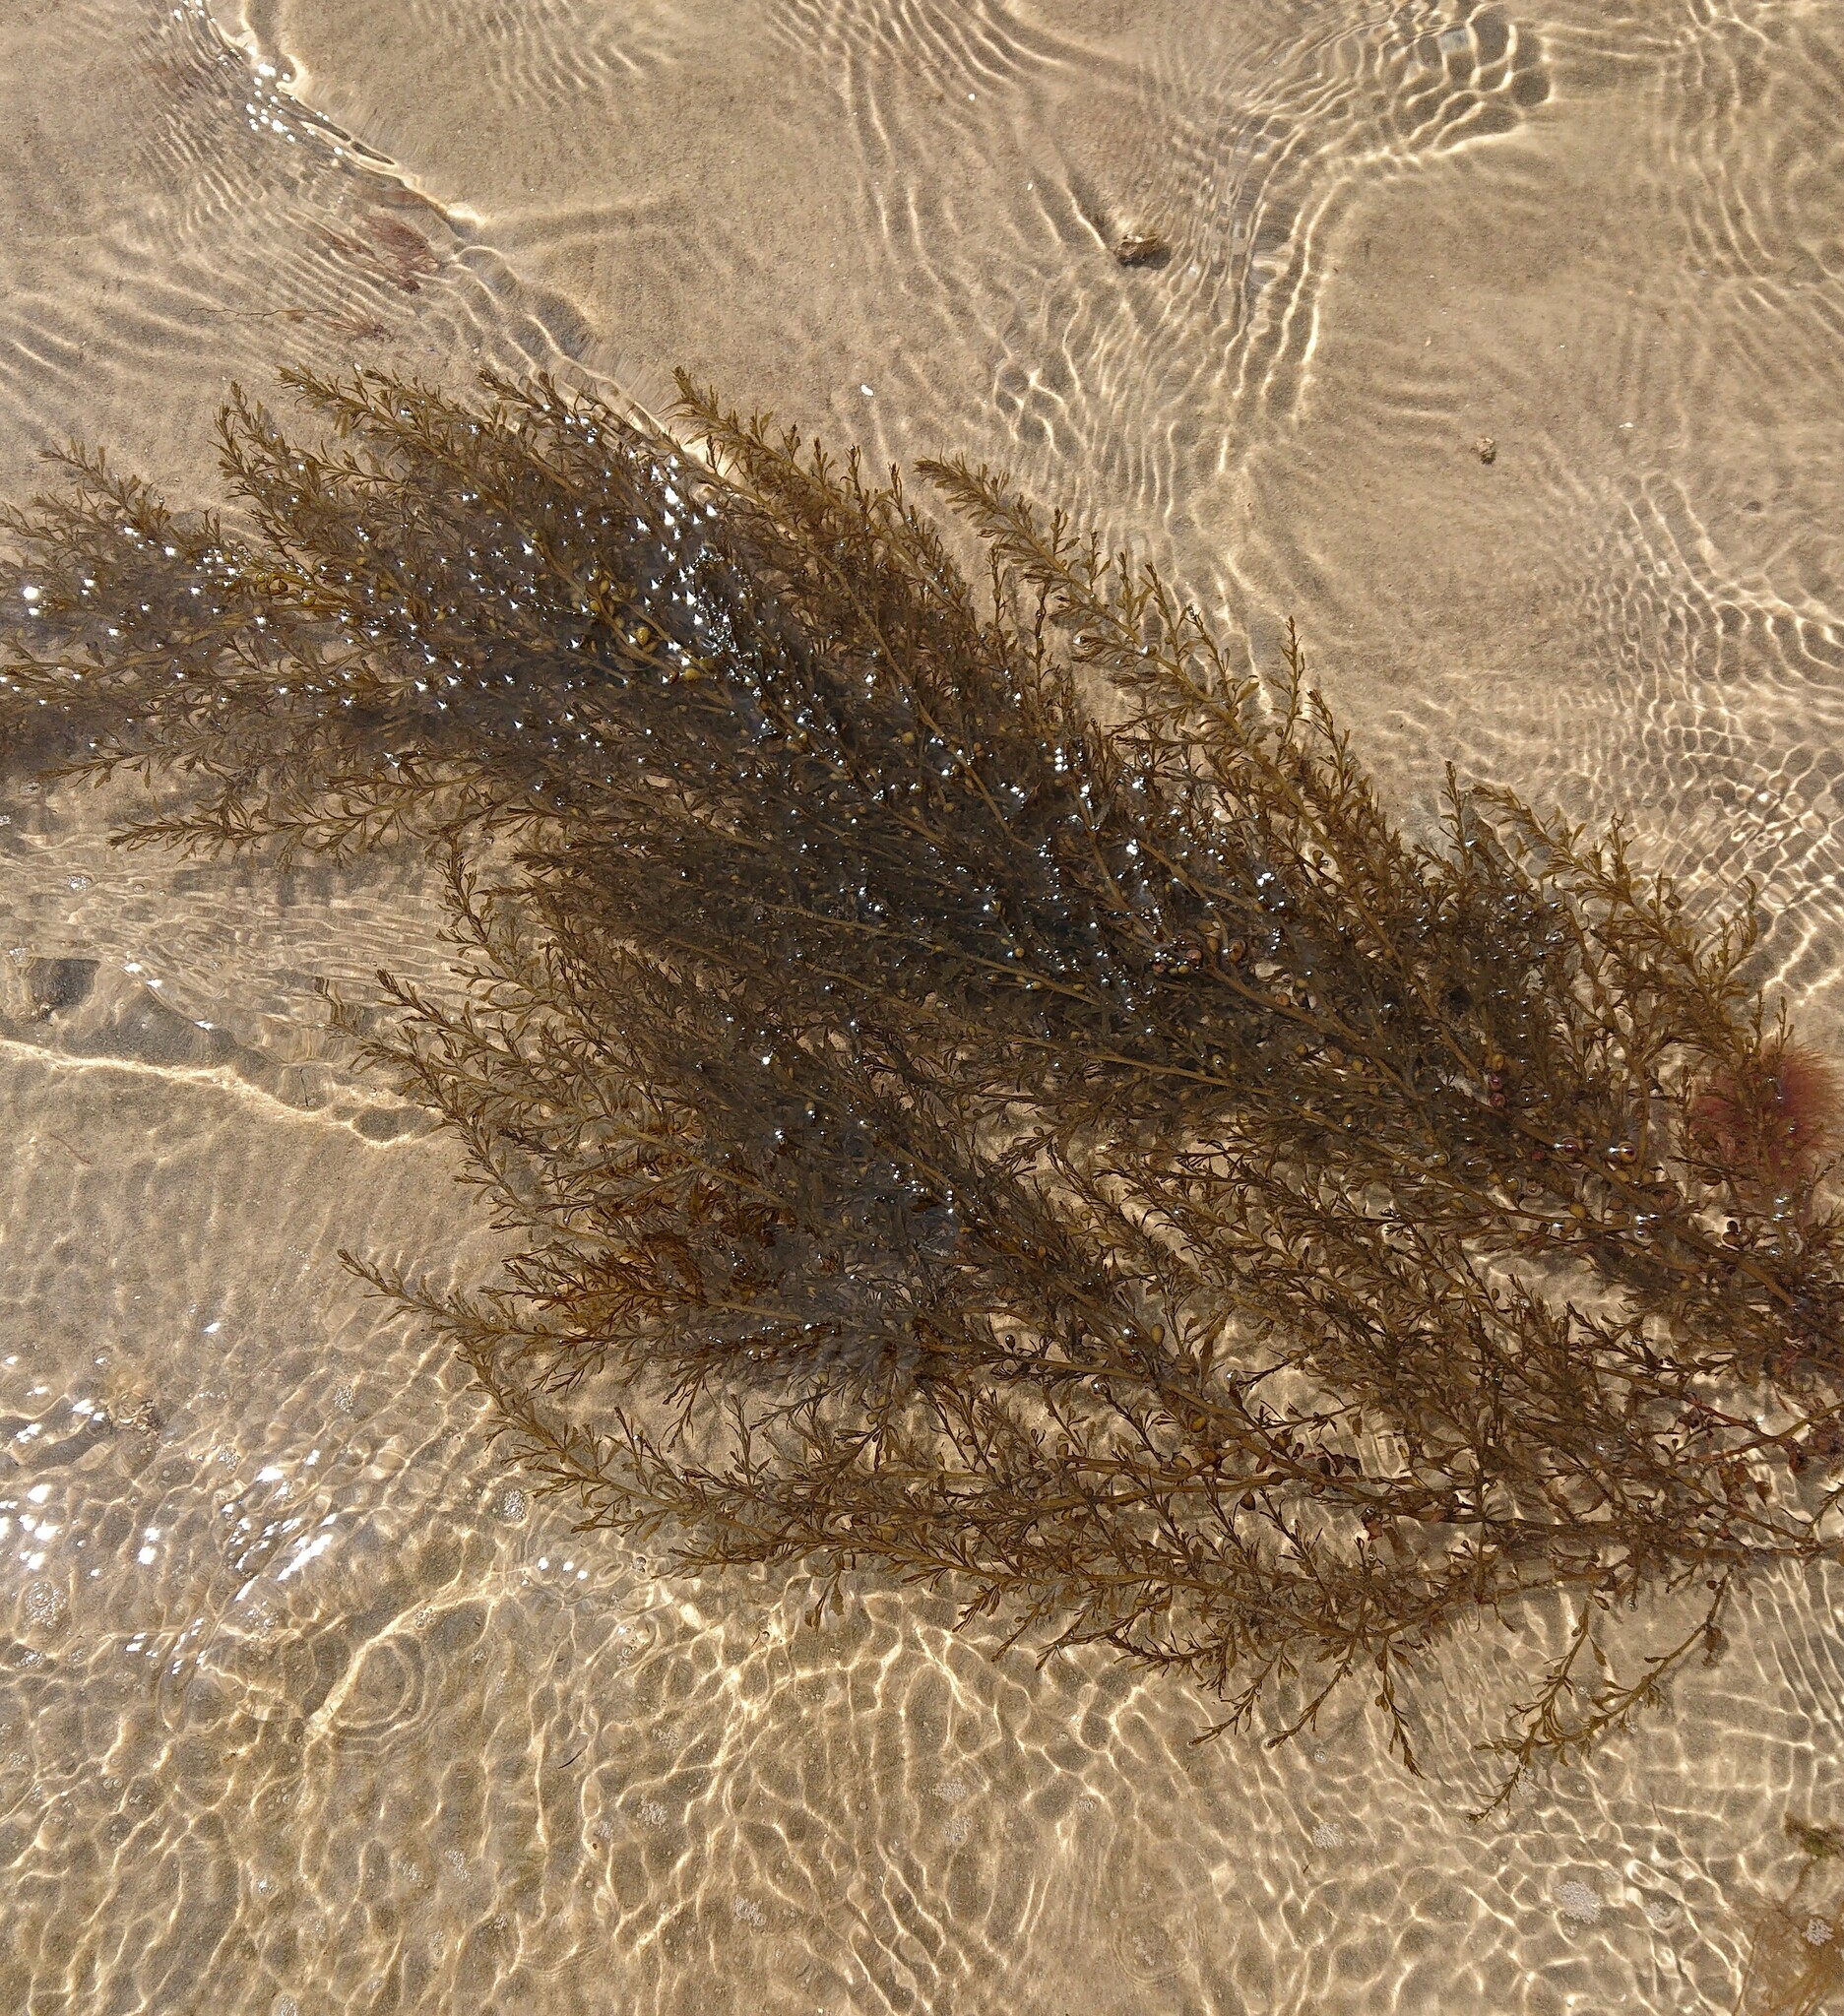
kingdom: Chromista
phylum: Ochrophyta
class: Phaeophyceae
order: Fucales
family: Sargassaceae
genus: Sargassum
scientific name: Sargassum muticum
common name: Japweed
